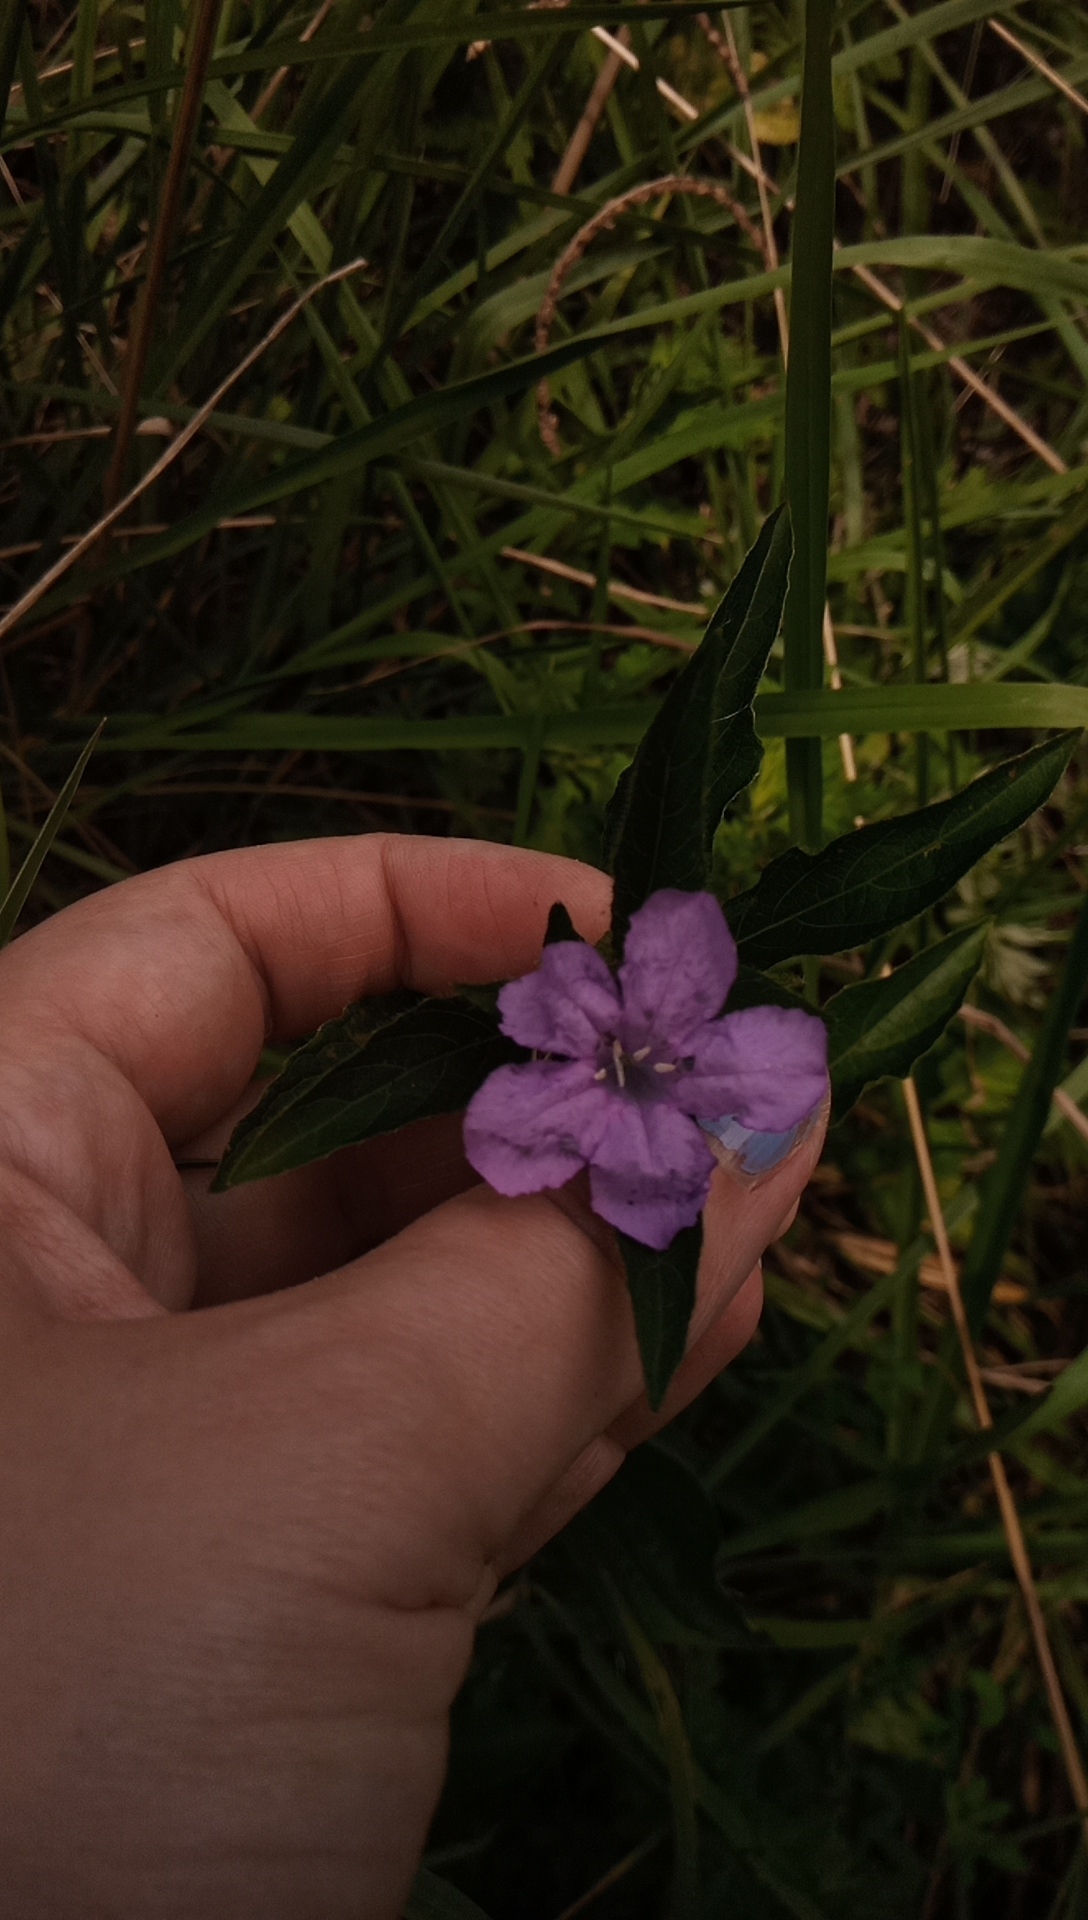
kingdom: Plantae
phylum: Tracheophyta
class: Magnoliopsida
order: Lamiales
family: Acanthaceae
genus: Ruellia
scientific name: Ruellia caroliniensis
